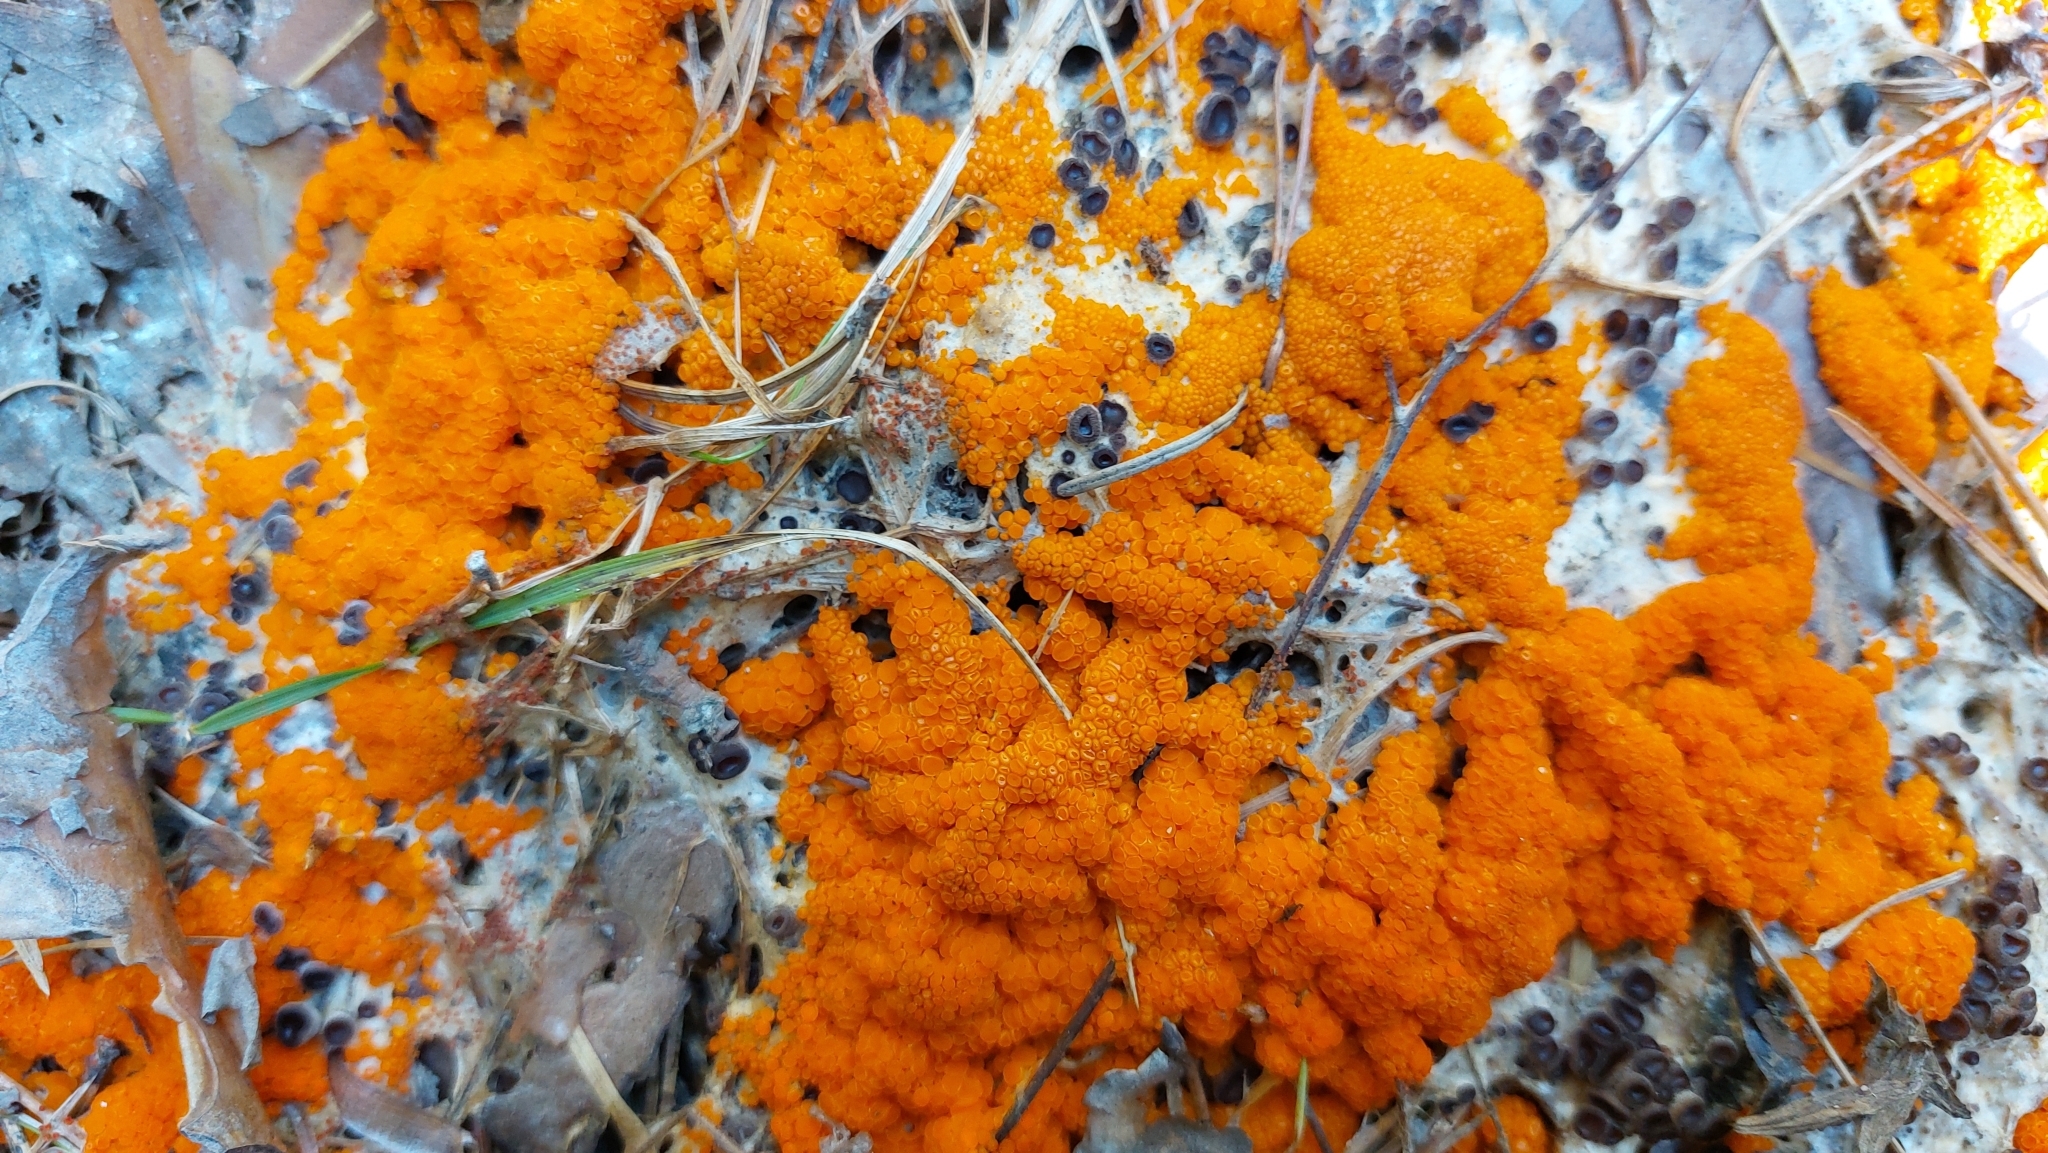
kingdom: Fungi
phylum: Ascomycota
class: Pezizomycetes
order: Pezizales
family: Pyronemataceae
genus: Byssonectria
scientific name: Byssonectria terrestris
